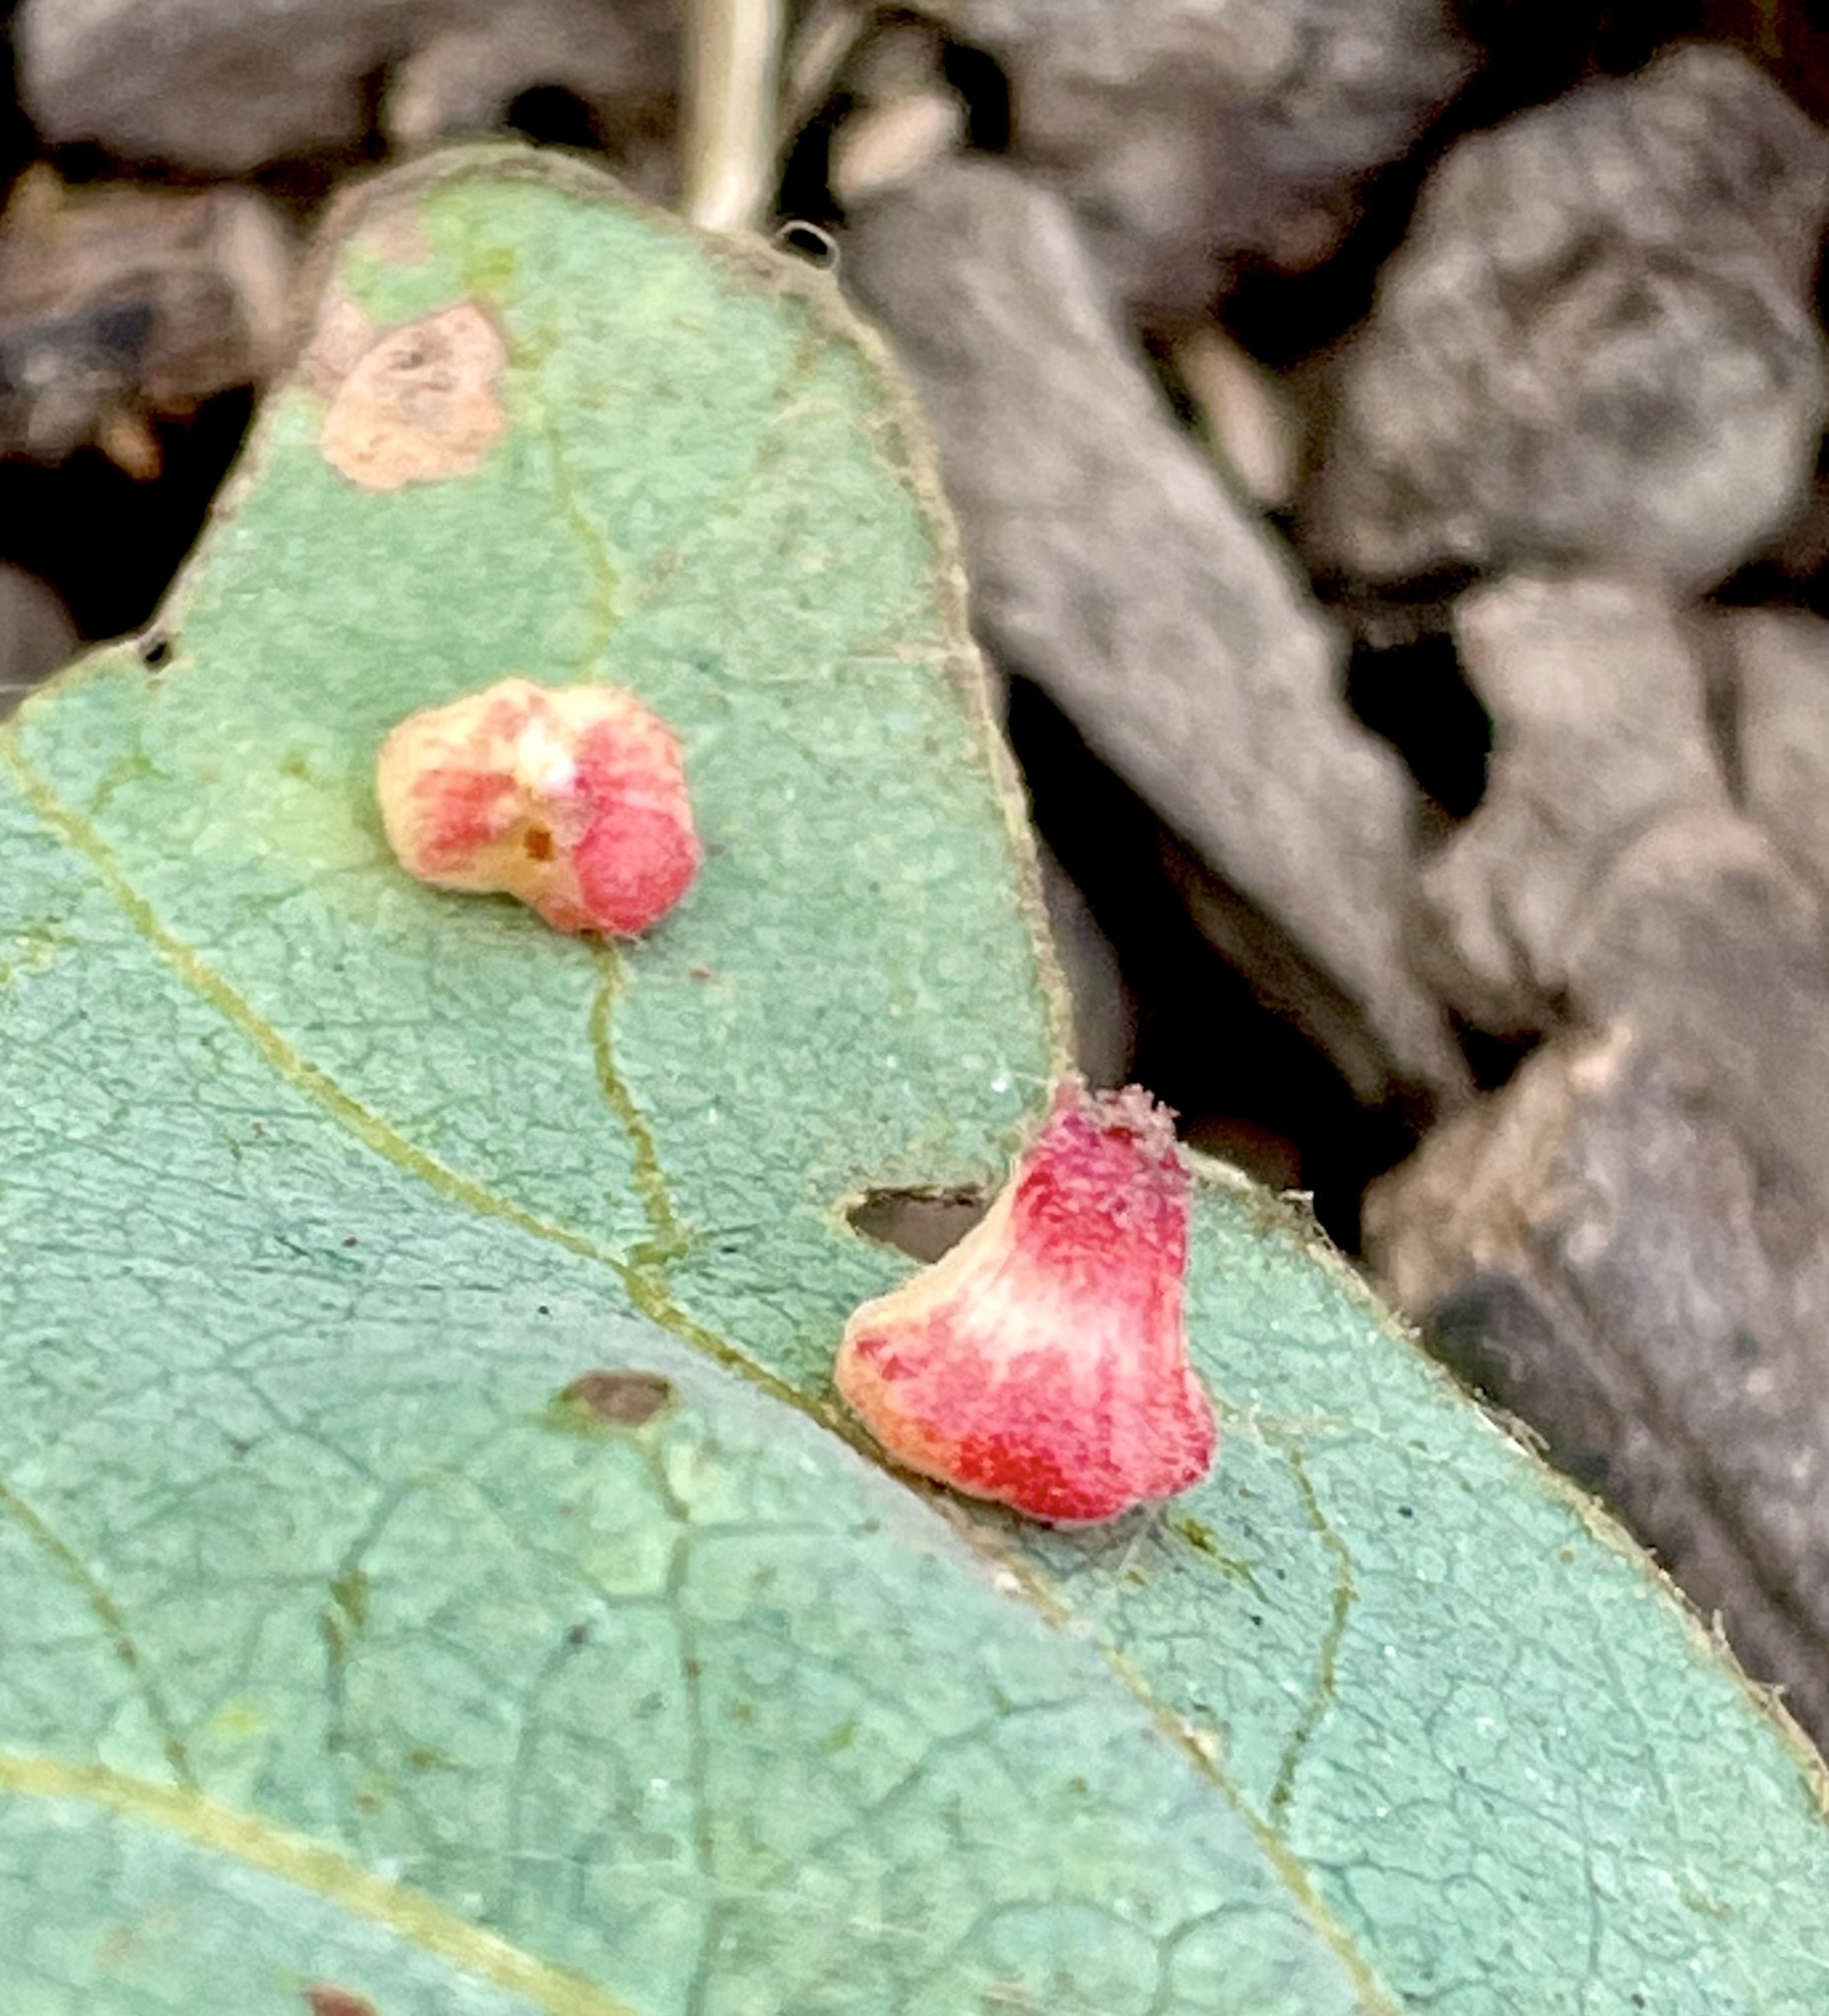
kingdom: Animalia
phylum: Arthropoda
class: Insecta
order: Hymenoptera
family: Cynipidae
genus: Andricus
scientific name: Andricus
